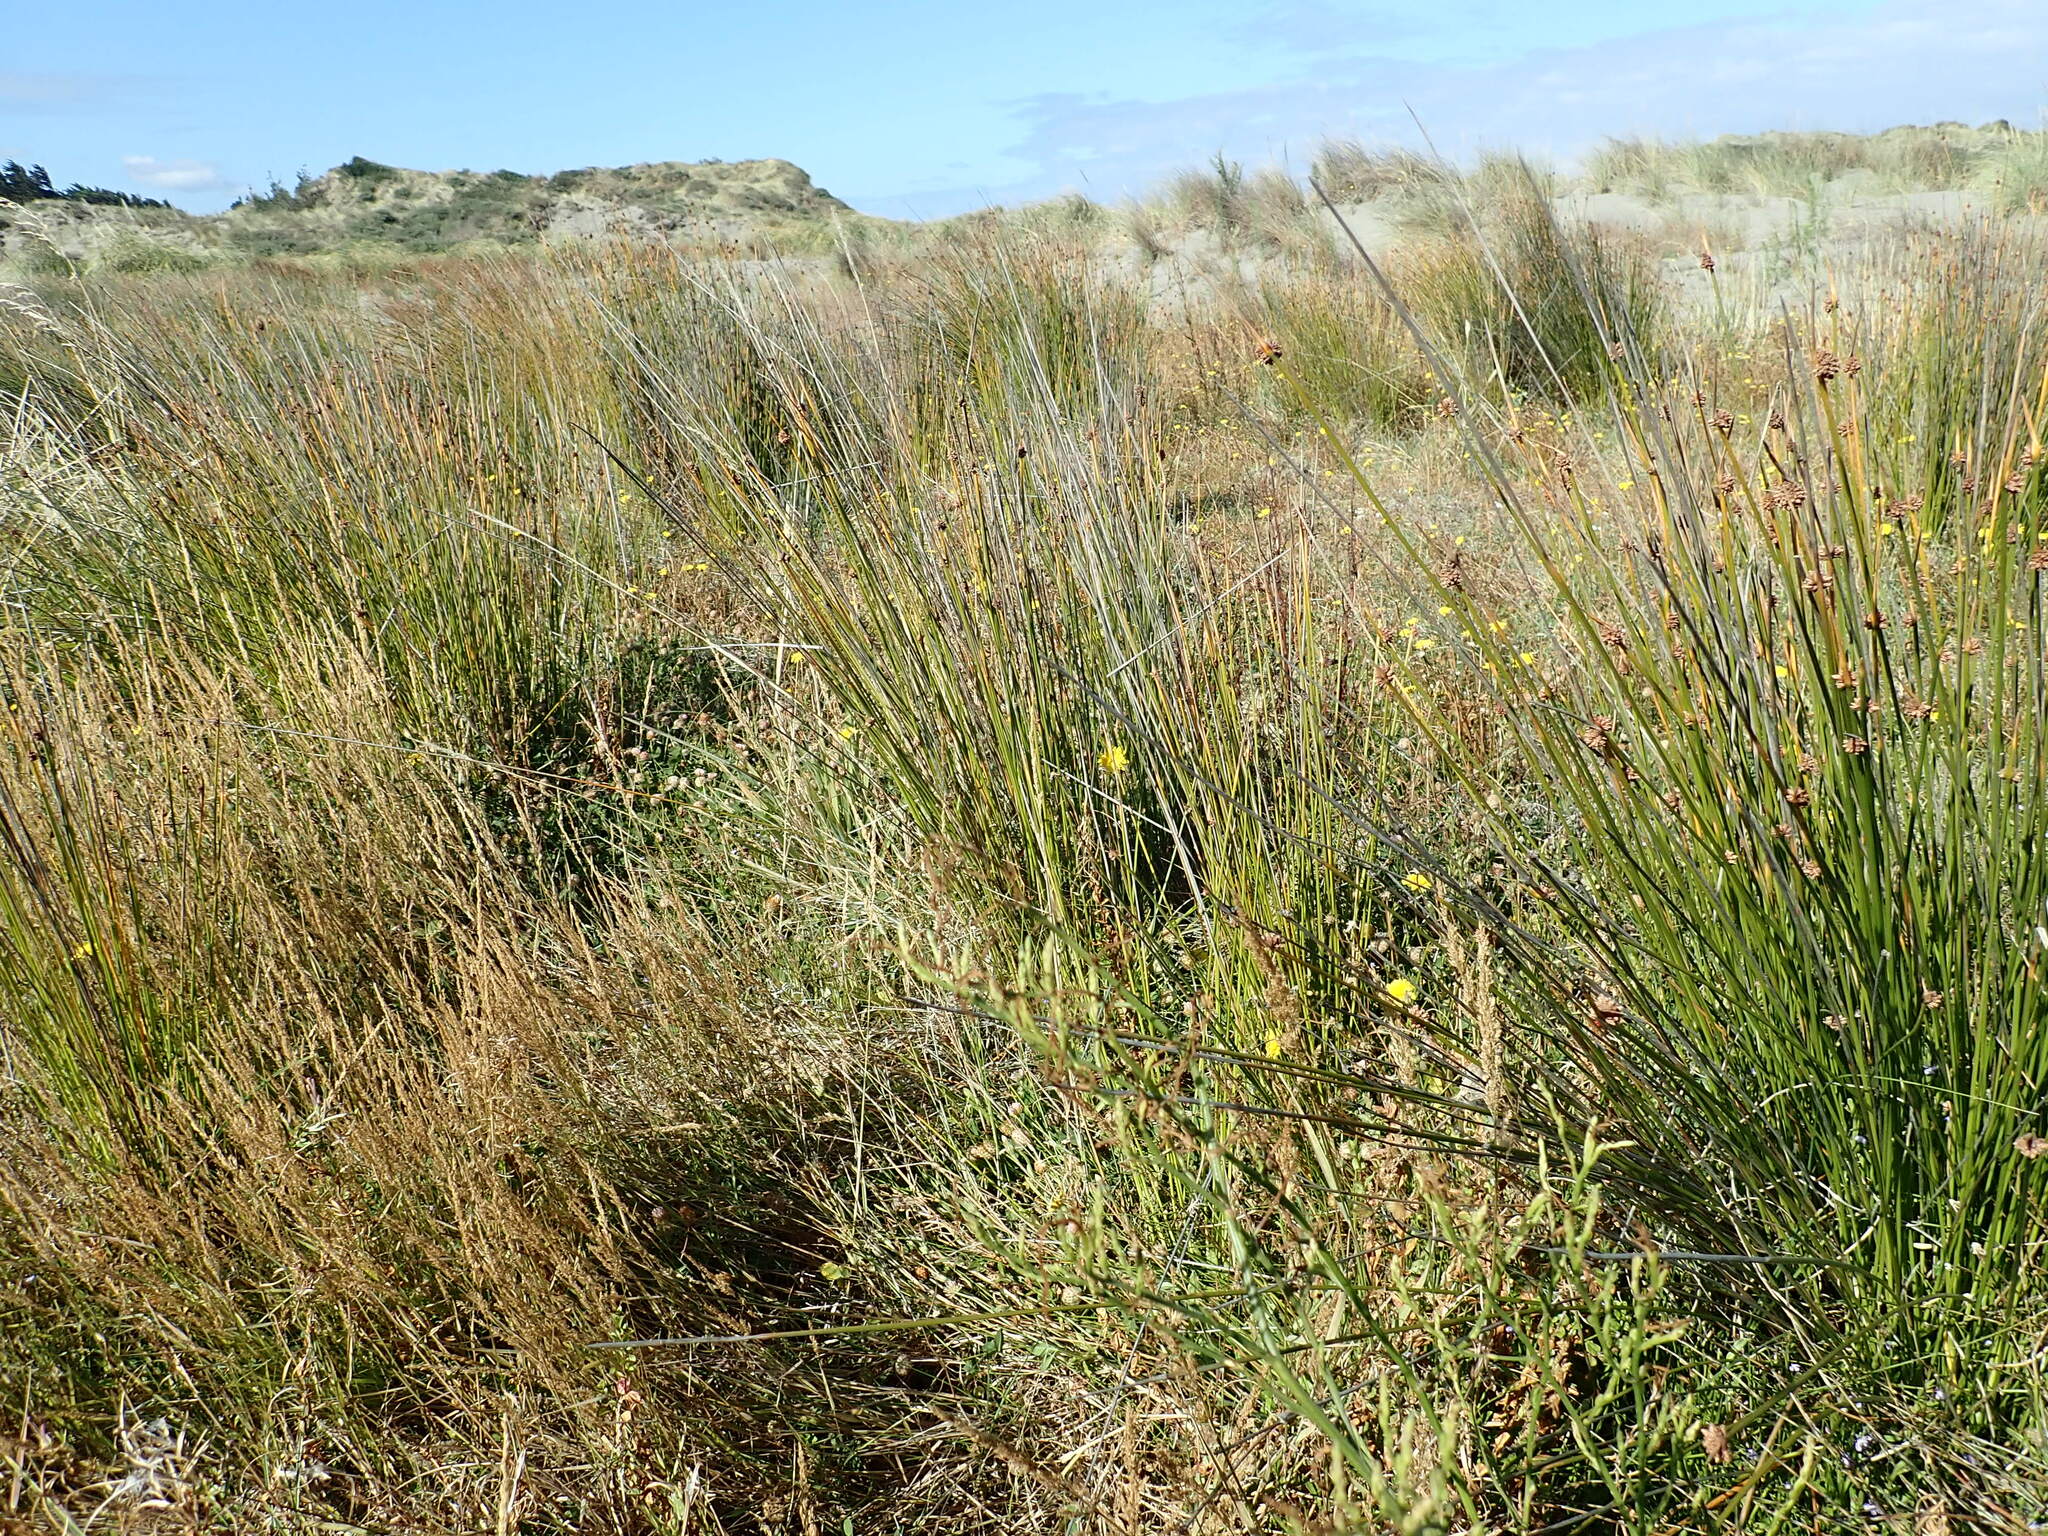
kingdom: Plantae
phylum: Tracheophyta
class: Liliopsida
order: Poales
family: Cyperaceae
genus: Ficinia
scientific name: Ficinia nodosa
